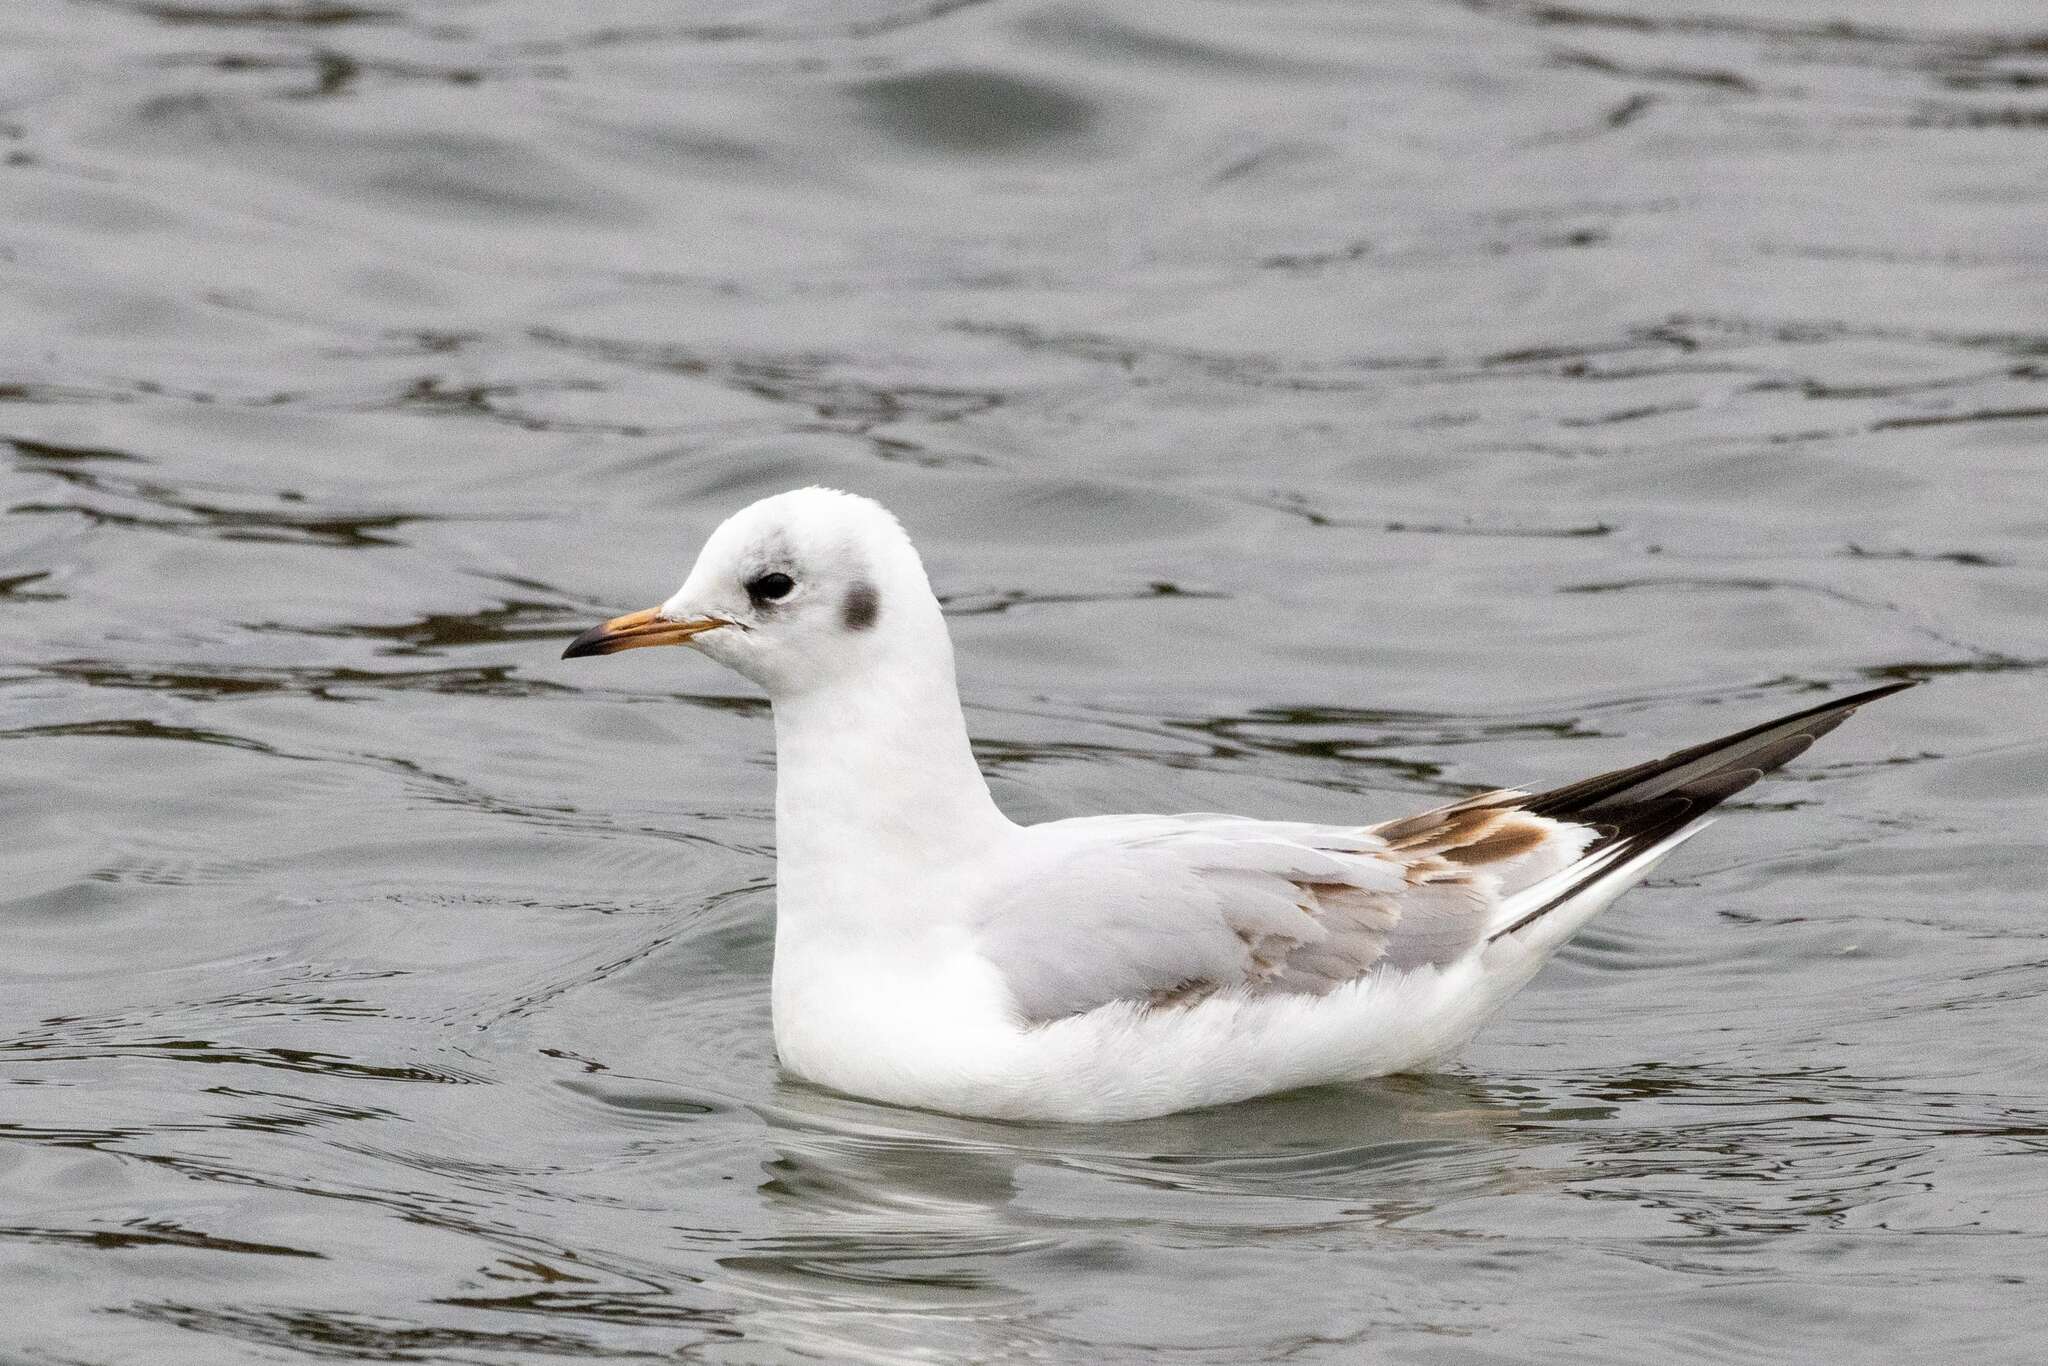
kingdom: Animalia
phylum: Chordata
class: Aves
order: Charadriiformes
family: Laridae
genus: Chroicocephalus
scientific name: Chroicocephalus ridibundus
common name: Black-headed gull
